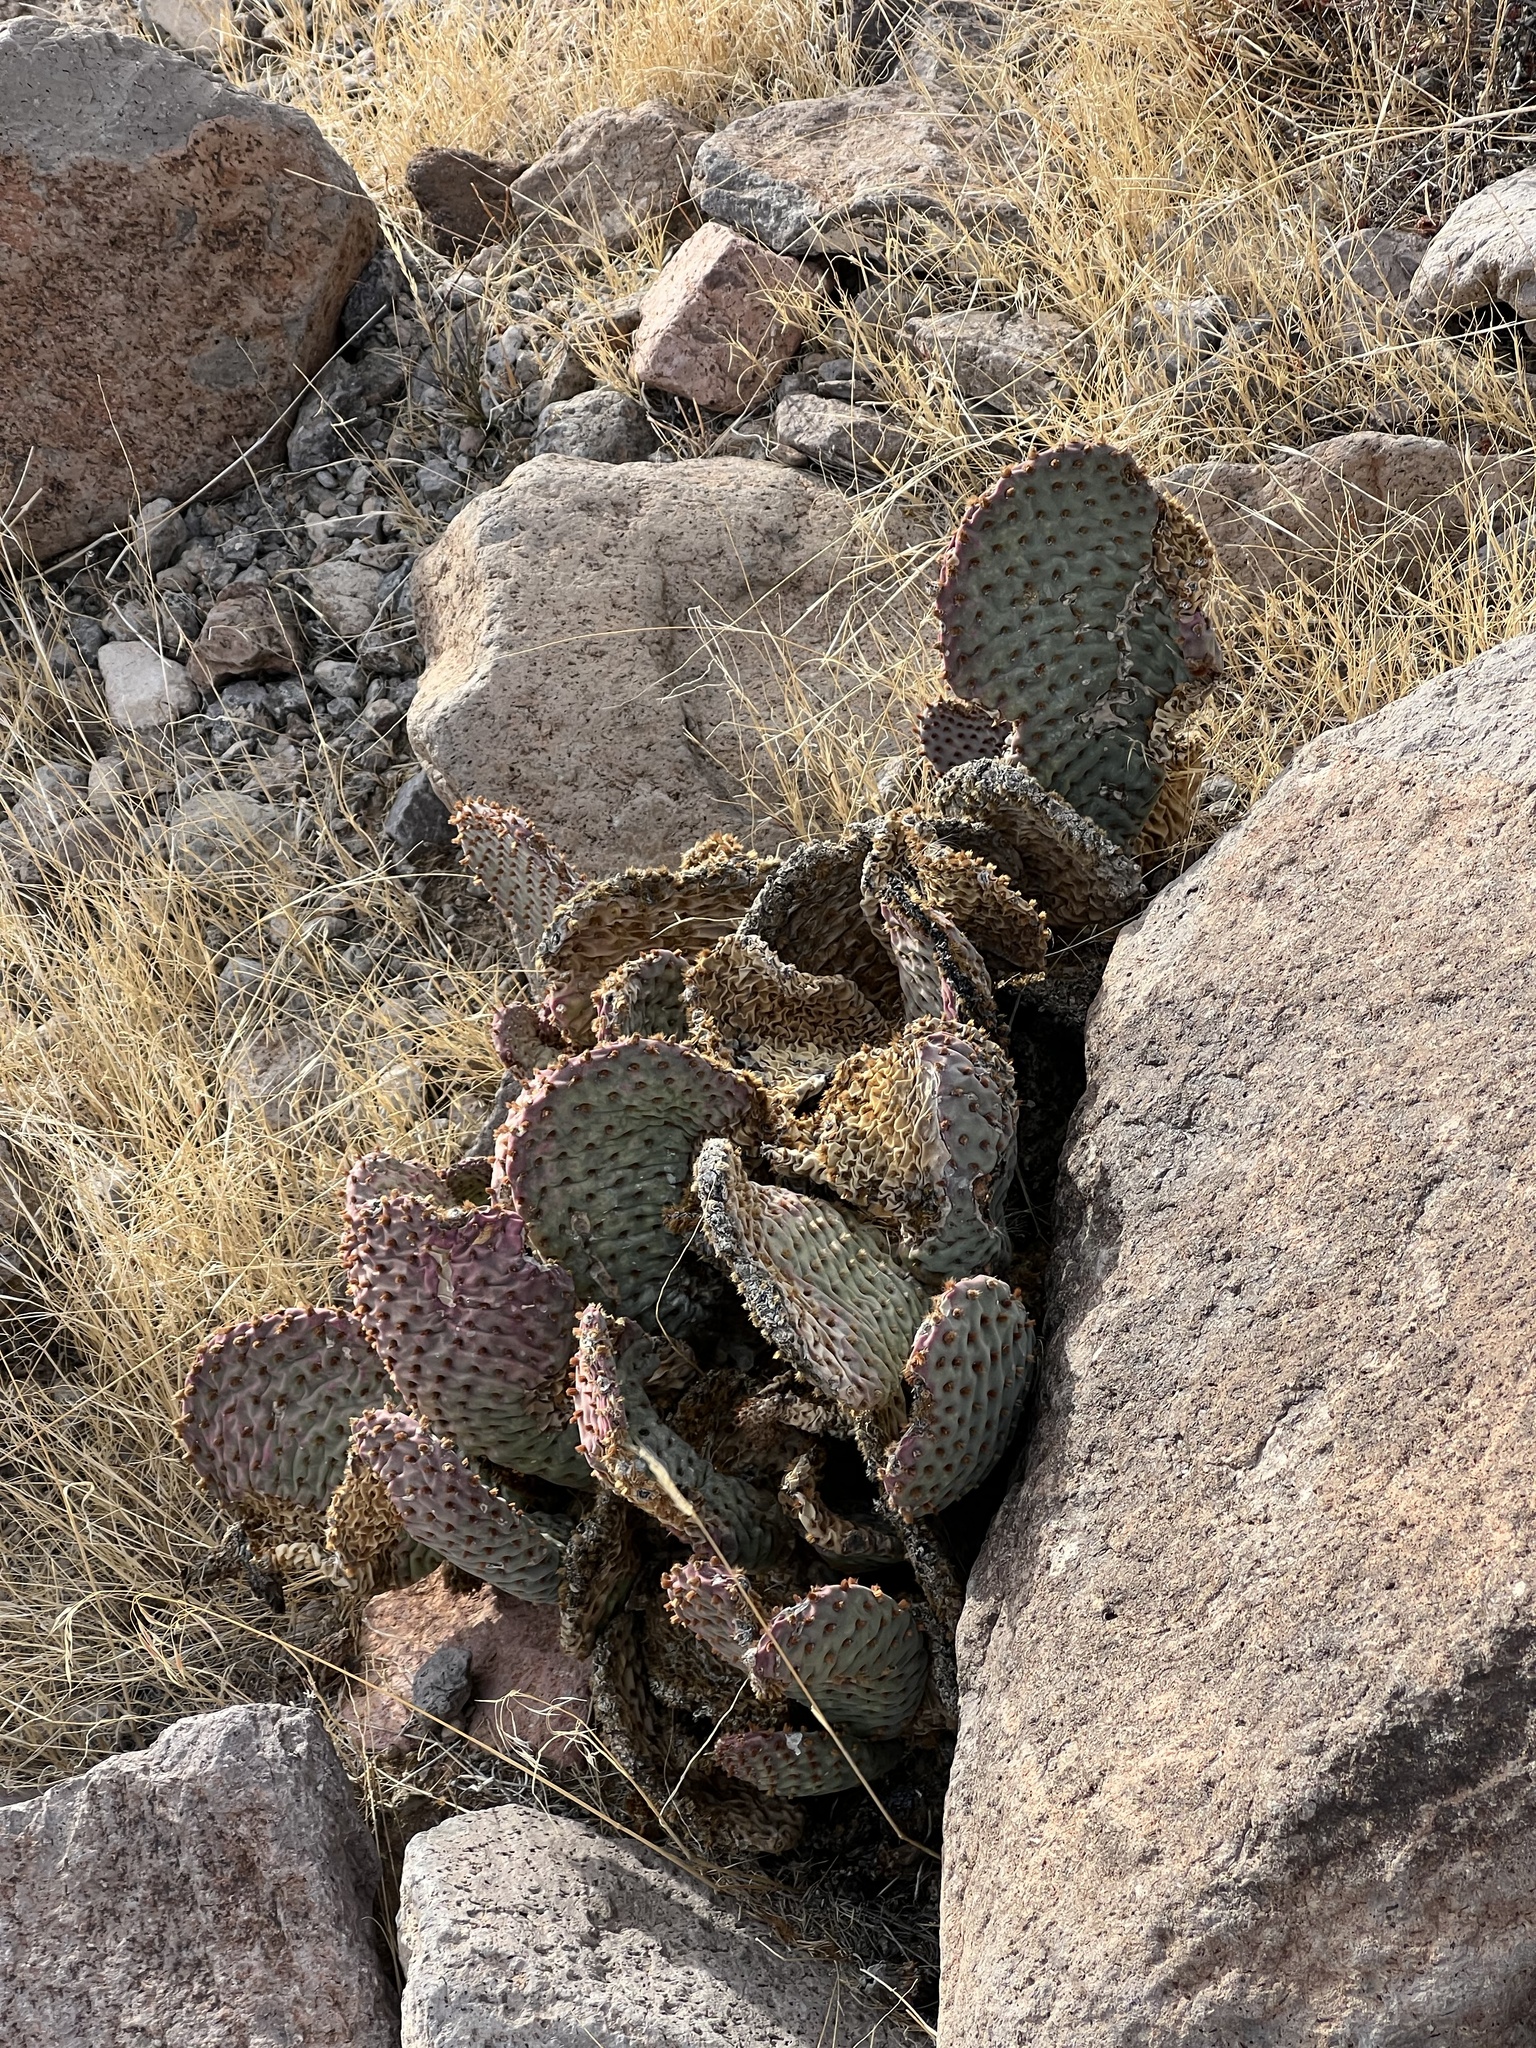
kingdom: Plantae
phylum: Tracheophyta
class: Magnoliopsida
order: Caryophyllales
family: Cactaceae
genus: Opuntia
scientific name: Opuntia basilaris
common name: Beavertail prickly-pear
